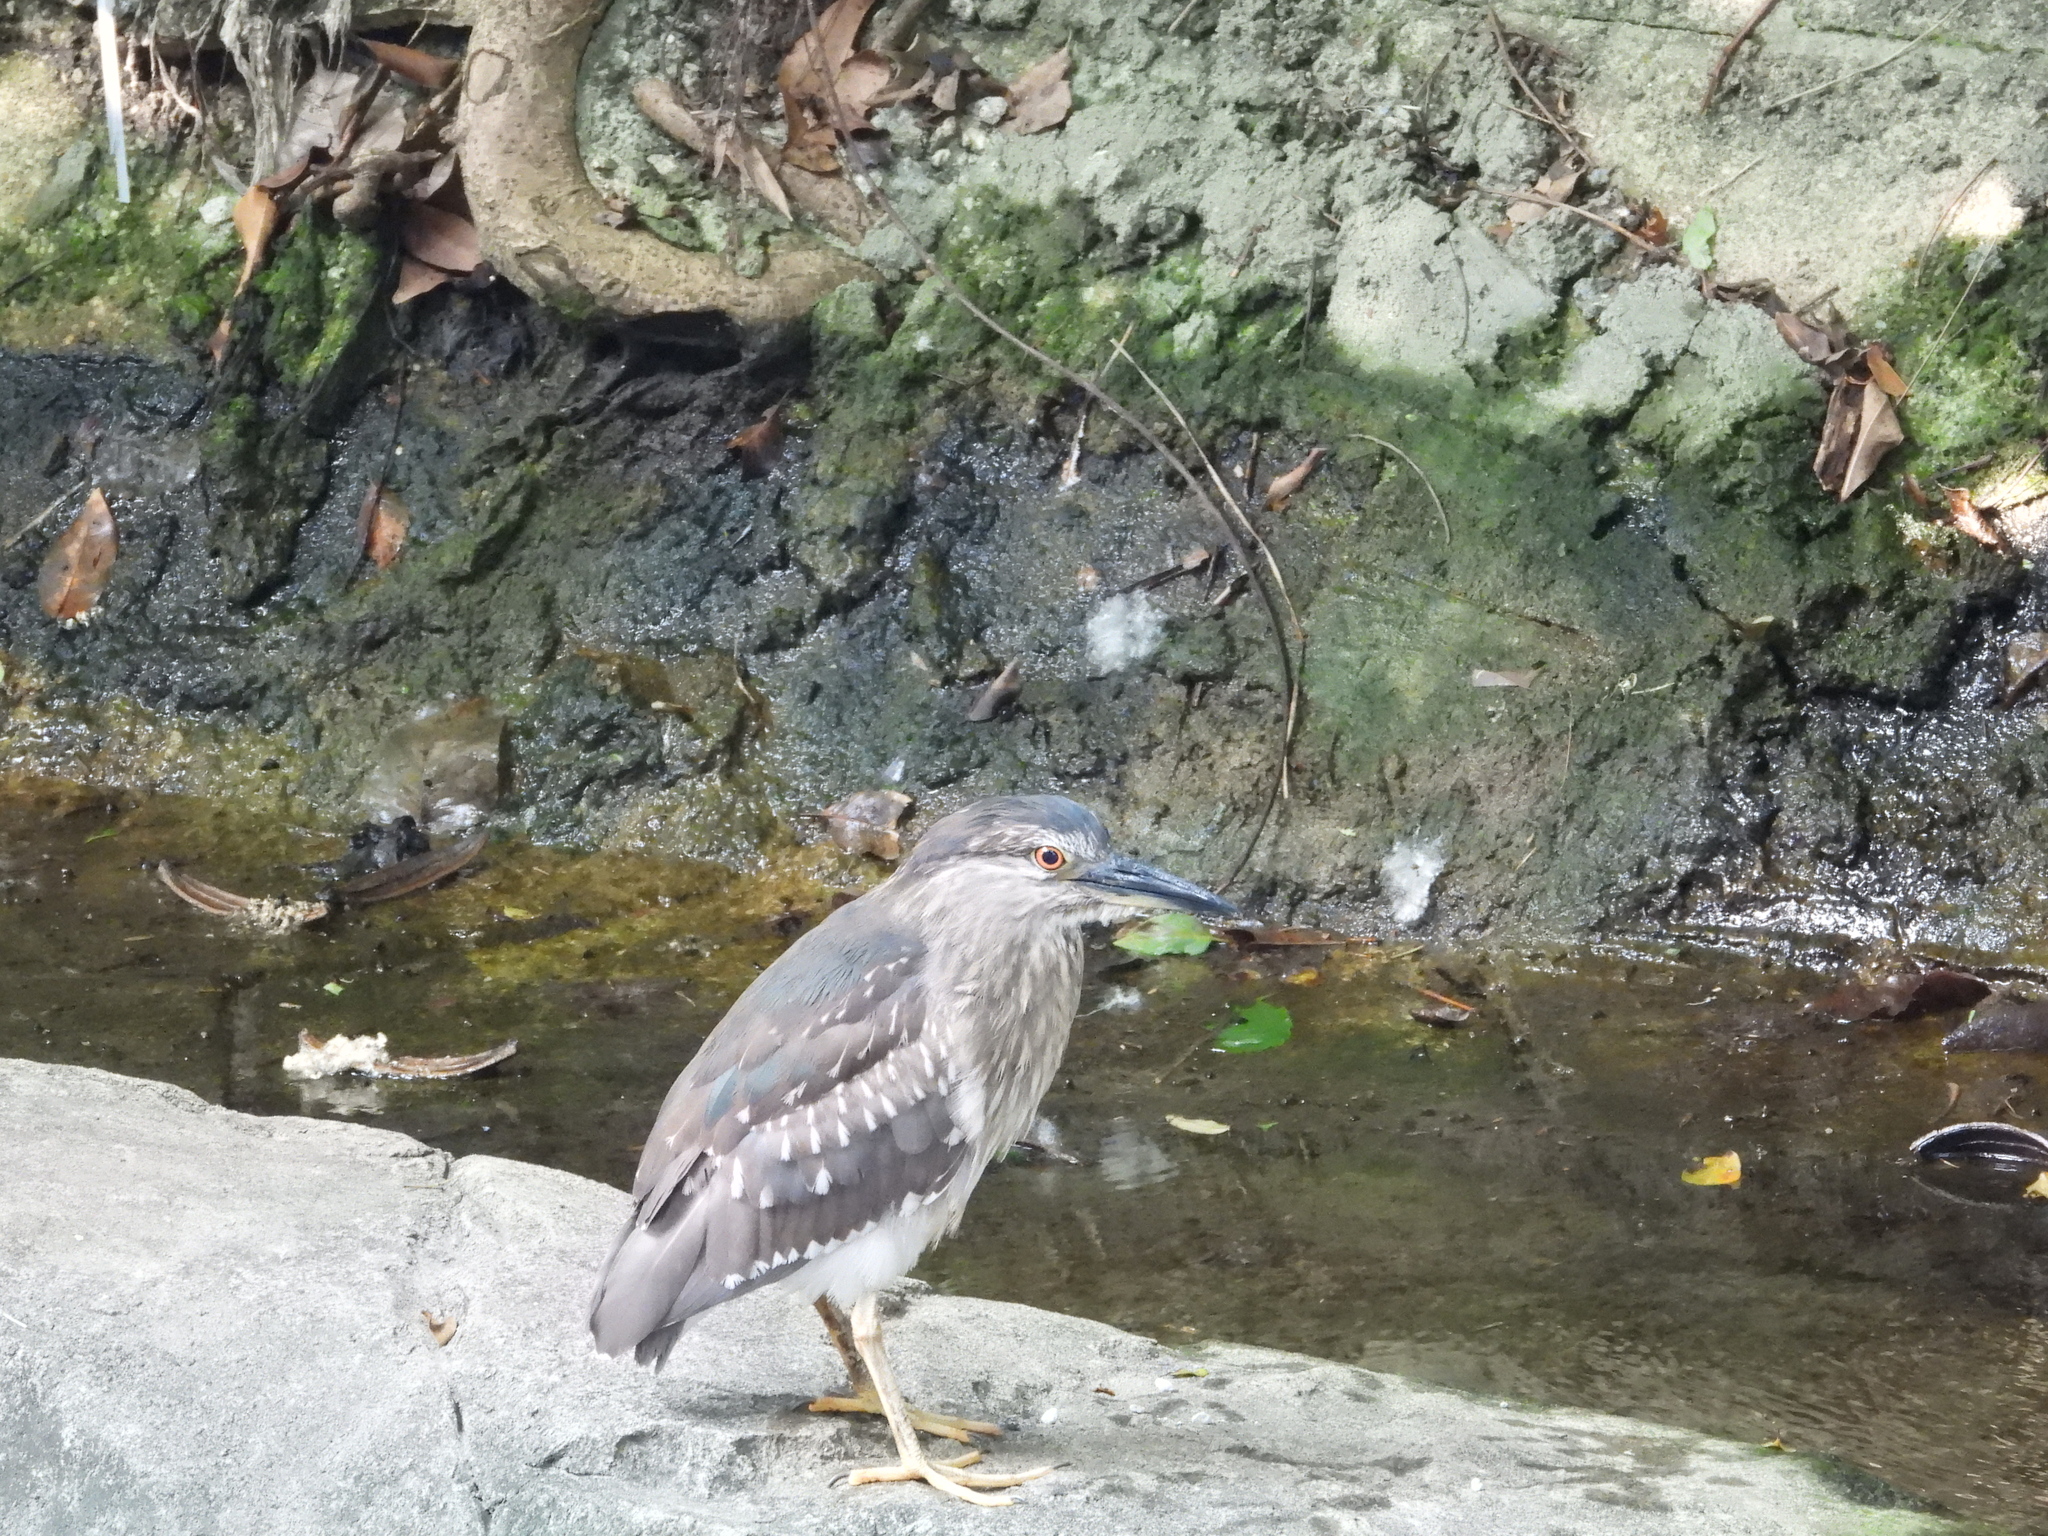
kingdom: Animalia
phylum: Chordata
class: Aves
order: Pelecaniformes
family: Ardeidae
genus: Nycticorax
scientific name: Nycticorax nycticorax
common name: Black-crowned night heron
